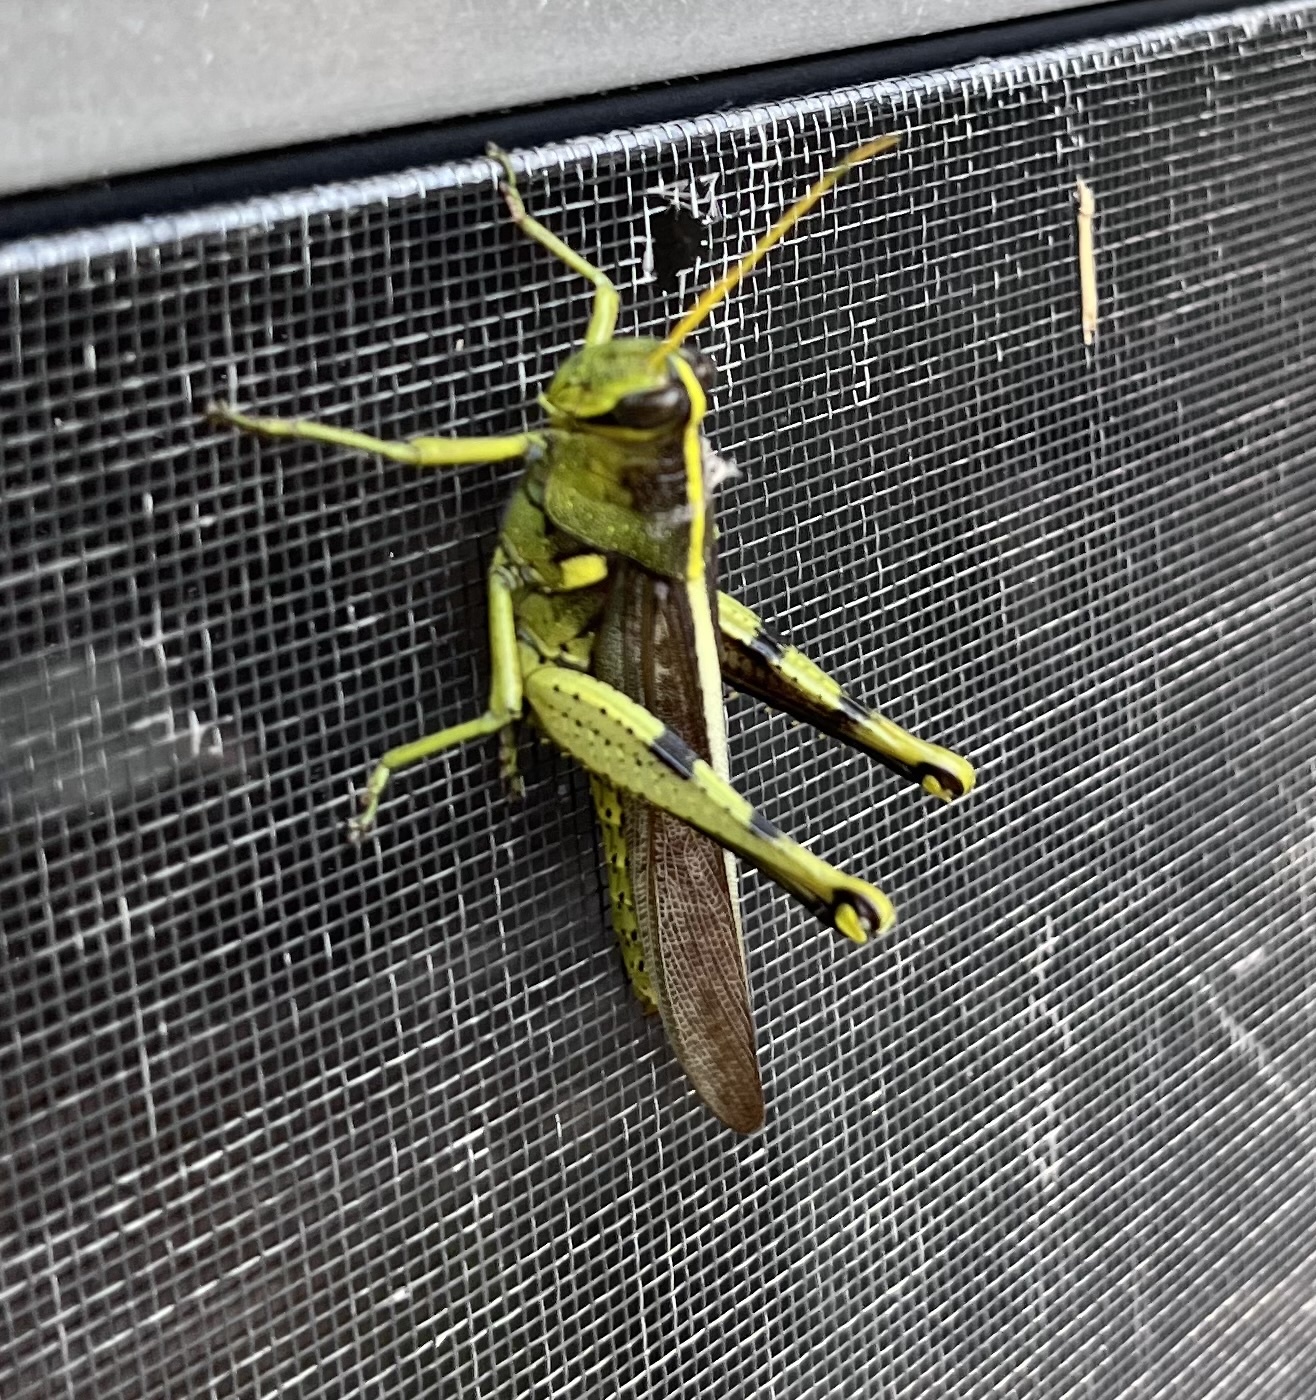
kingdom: Animalia
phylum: Arthropoda
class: Insecta
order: Orthoptera
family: Acrididae
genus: Schistocerca
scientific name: Schistocerca obscura
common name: Obscure bird grasshopper
